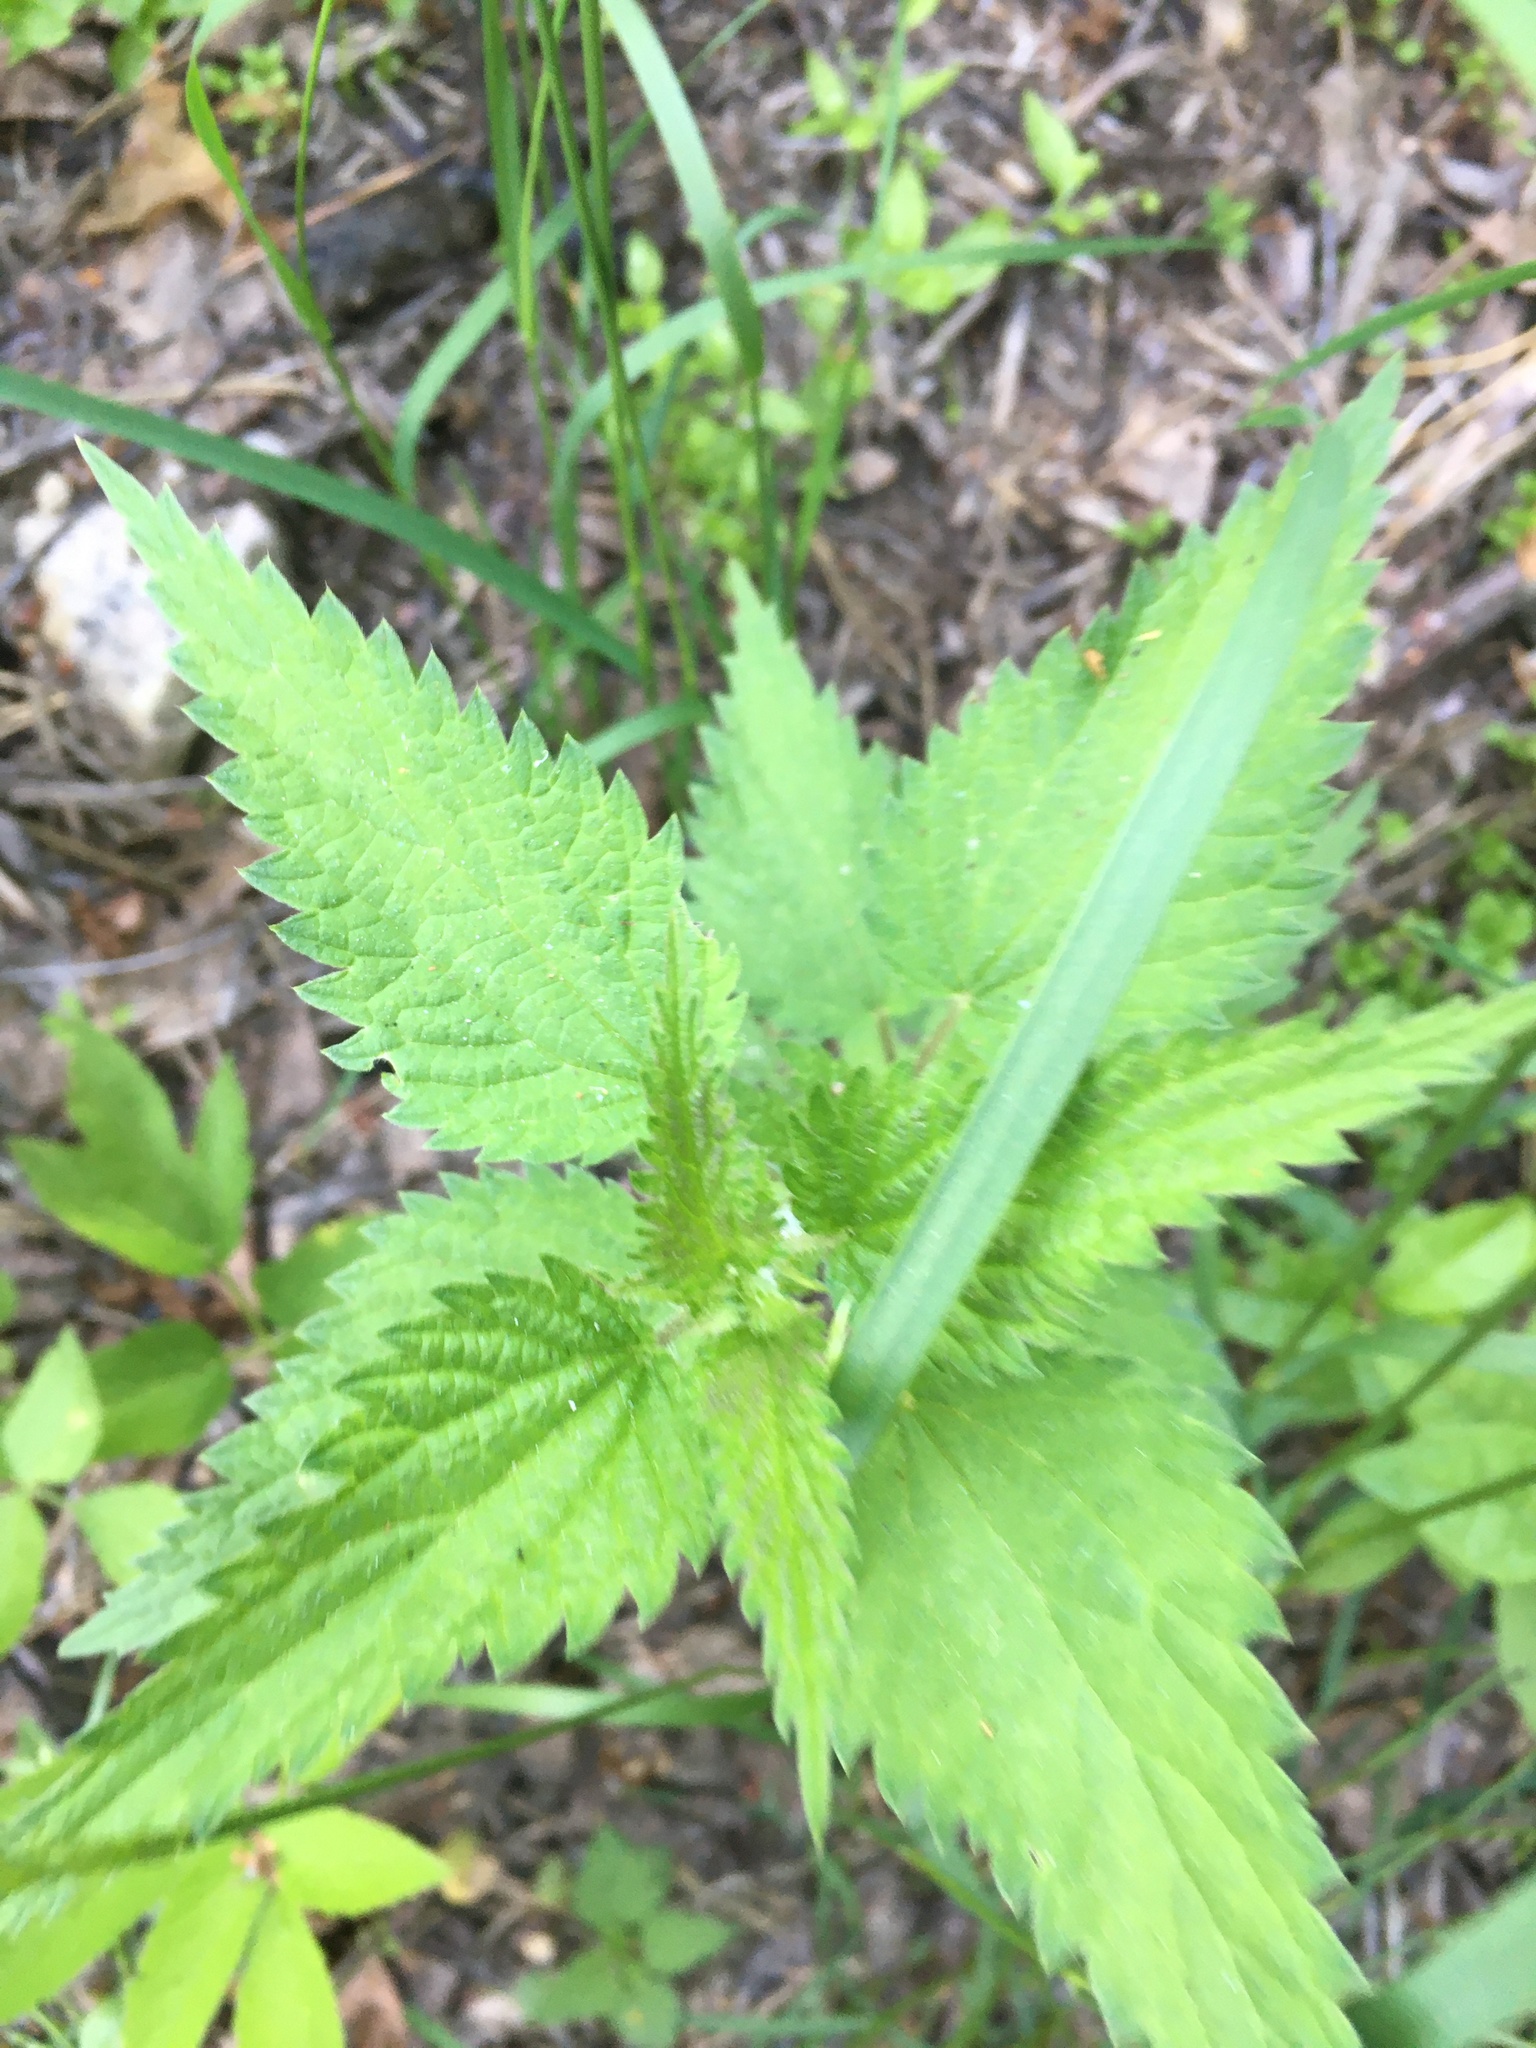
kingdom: Plantae
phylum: Tracheophyta
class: Magnoliopsida
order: Rosales
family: Urticaceae
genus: Urtica
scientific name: Urtica dioica
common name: Common nettle
